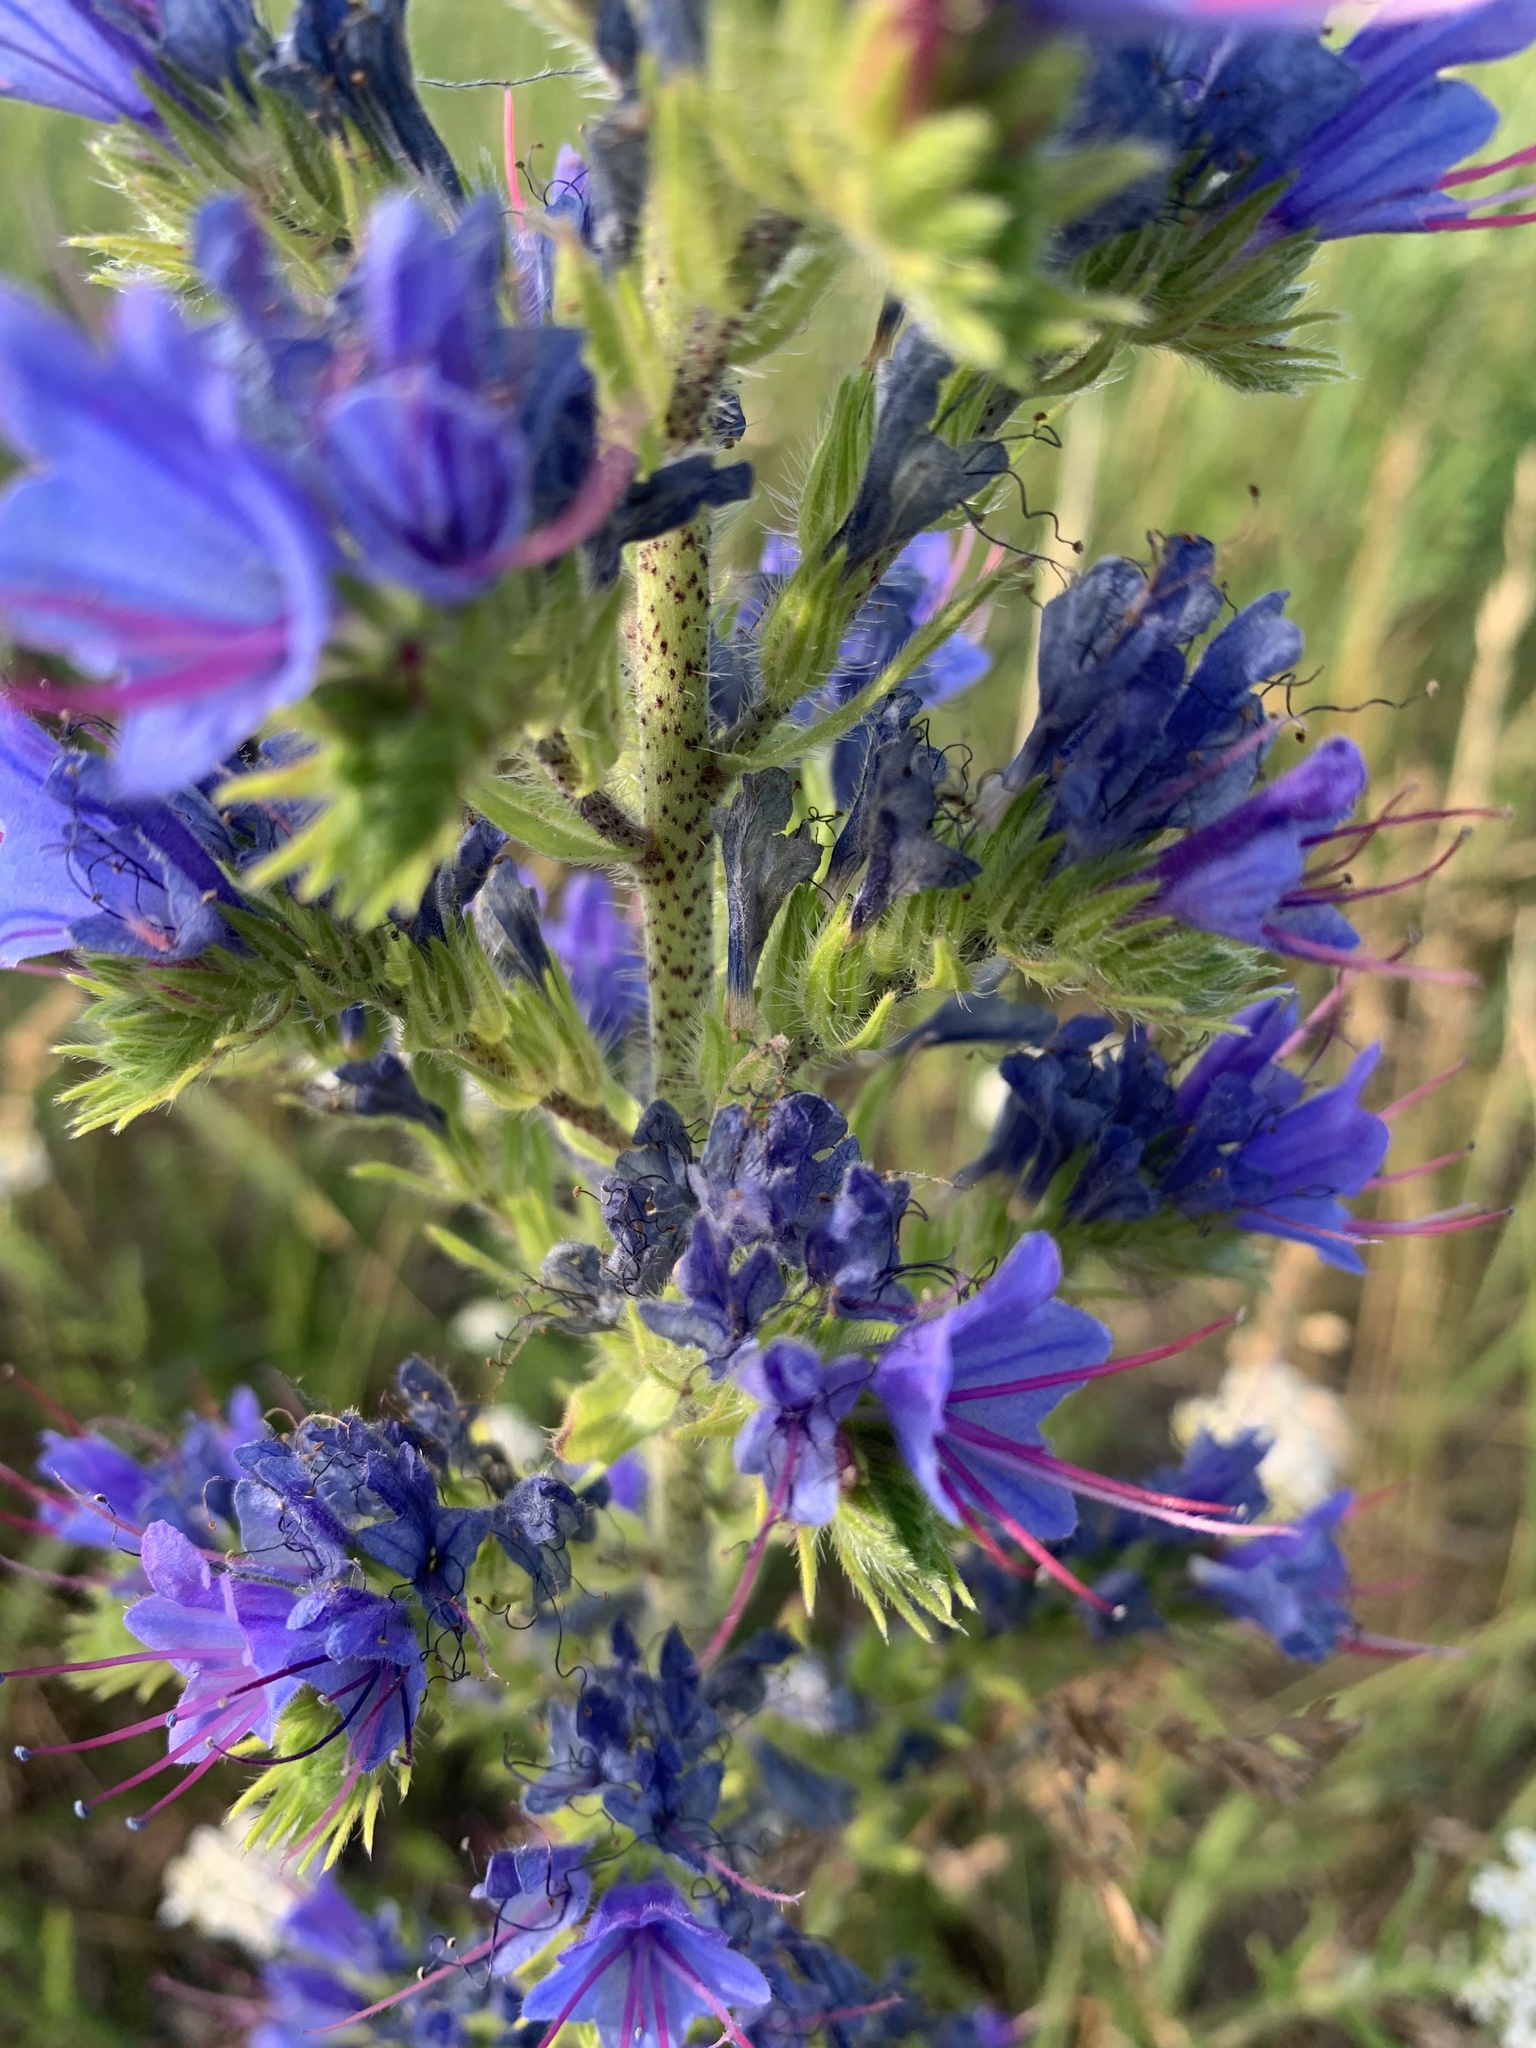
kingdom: Plantae
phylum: Tracheophyta
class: Magnoliopsida
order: Boraginales
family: Boraginaceae
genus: Echium
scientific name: Echium vulgare
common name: Common viper's bugloss
